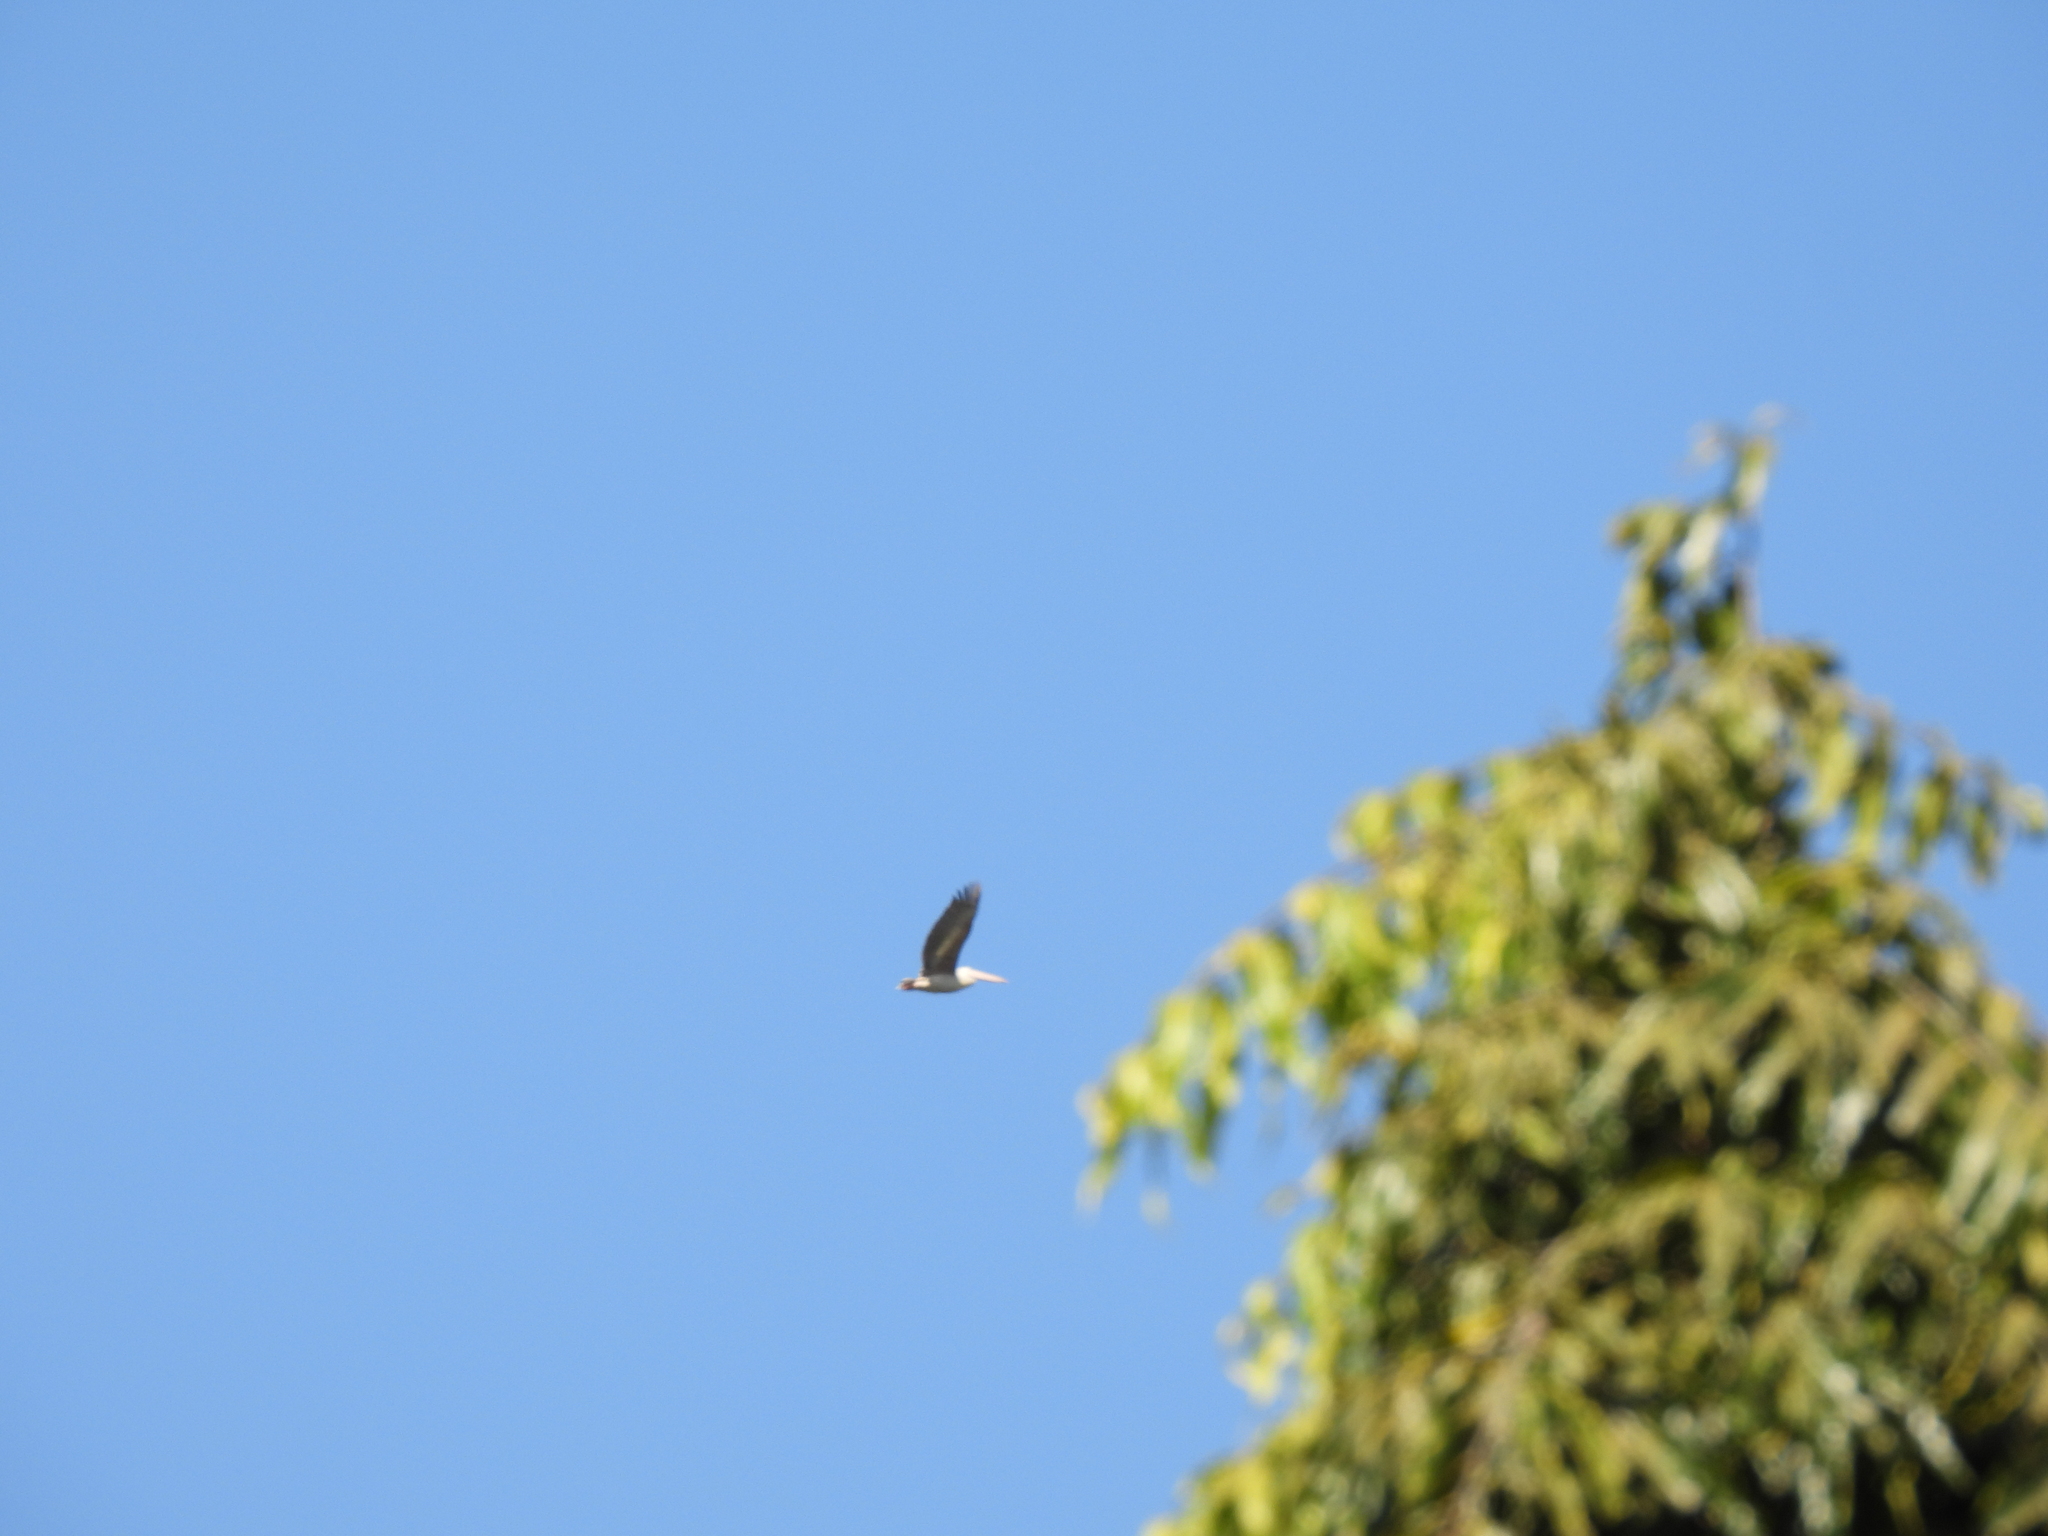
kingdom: Animalia
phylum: Chordata
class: Aves
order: Pelecaniformes
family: Pelecanidae
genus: Pelecanus
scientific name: Pelecanus rufescens
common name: Pink-backed pelican
